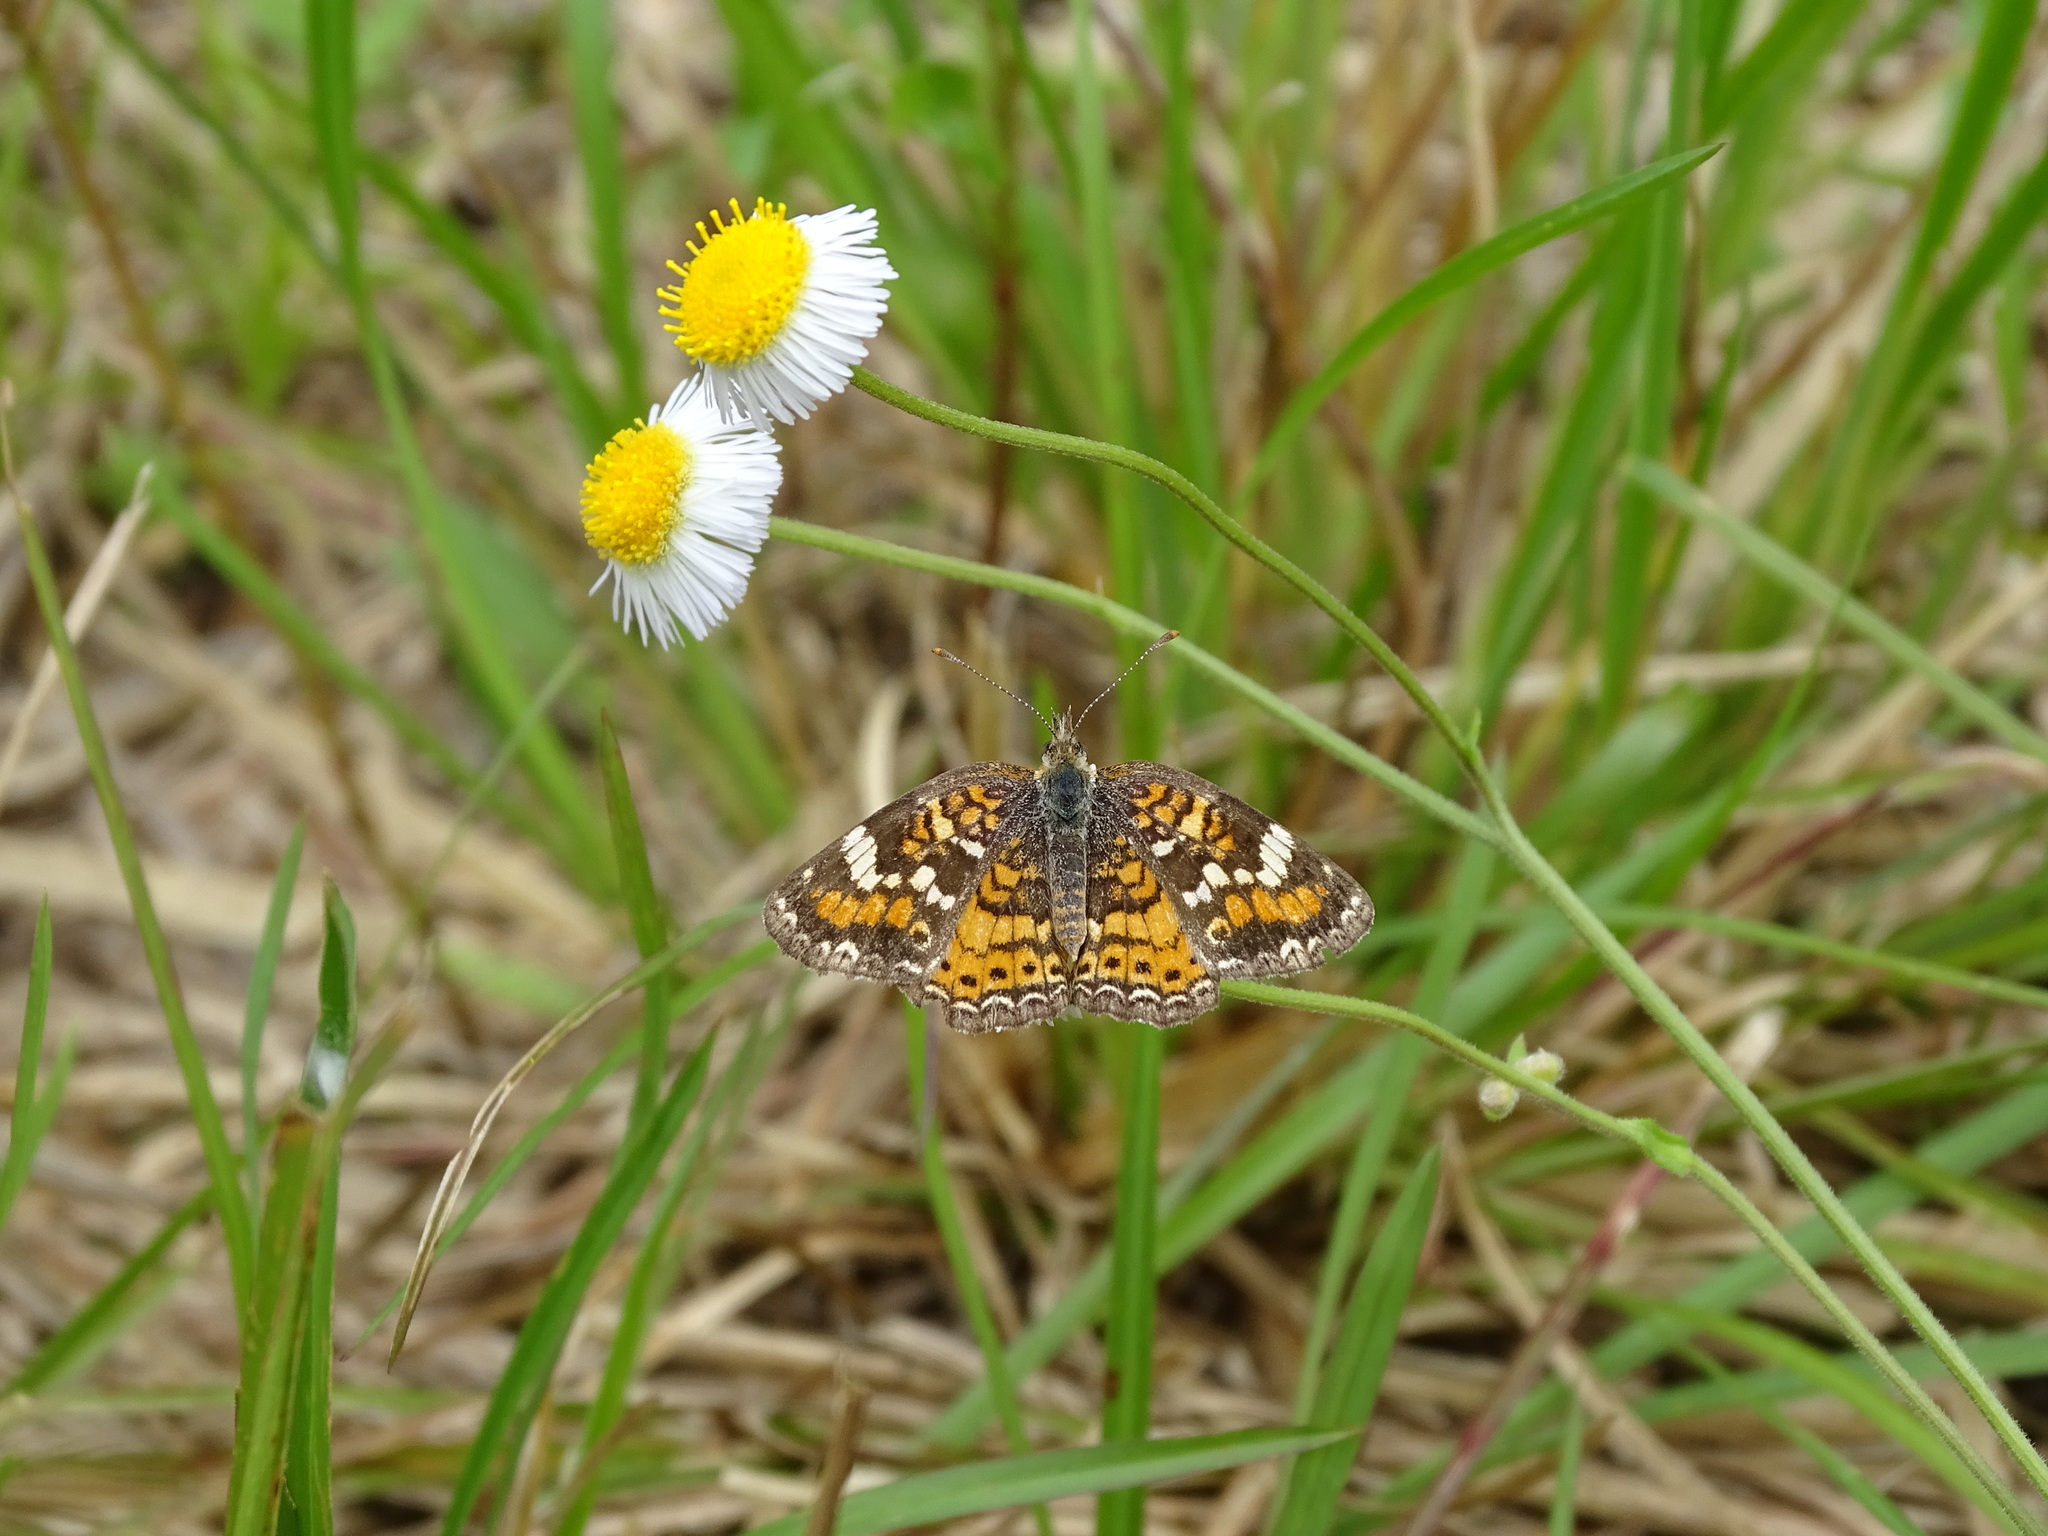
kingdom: Animalia
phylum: Arthropoda
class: Insecta
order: Lepidoptera
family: Nymphalidae
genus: Phyciodes
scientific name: Phyciodes phaon
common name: Phaon crescent
